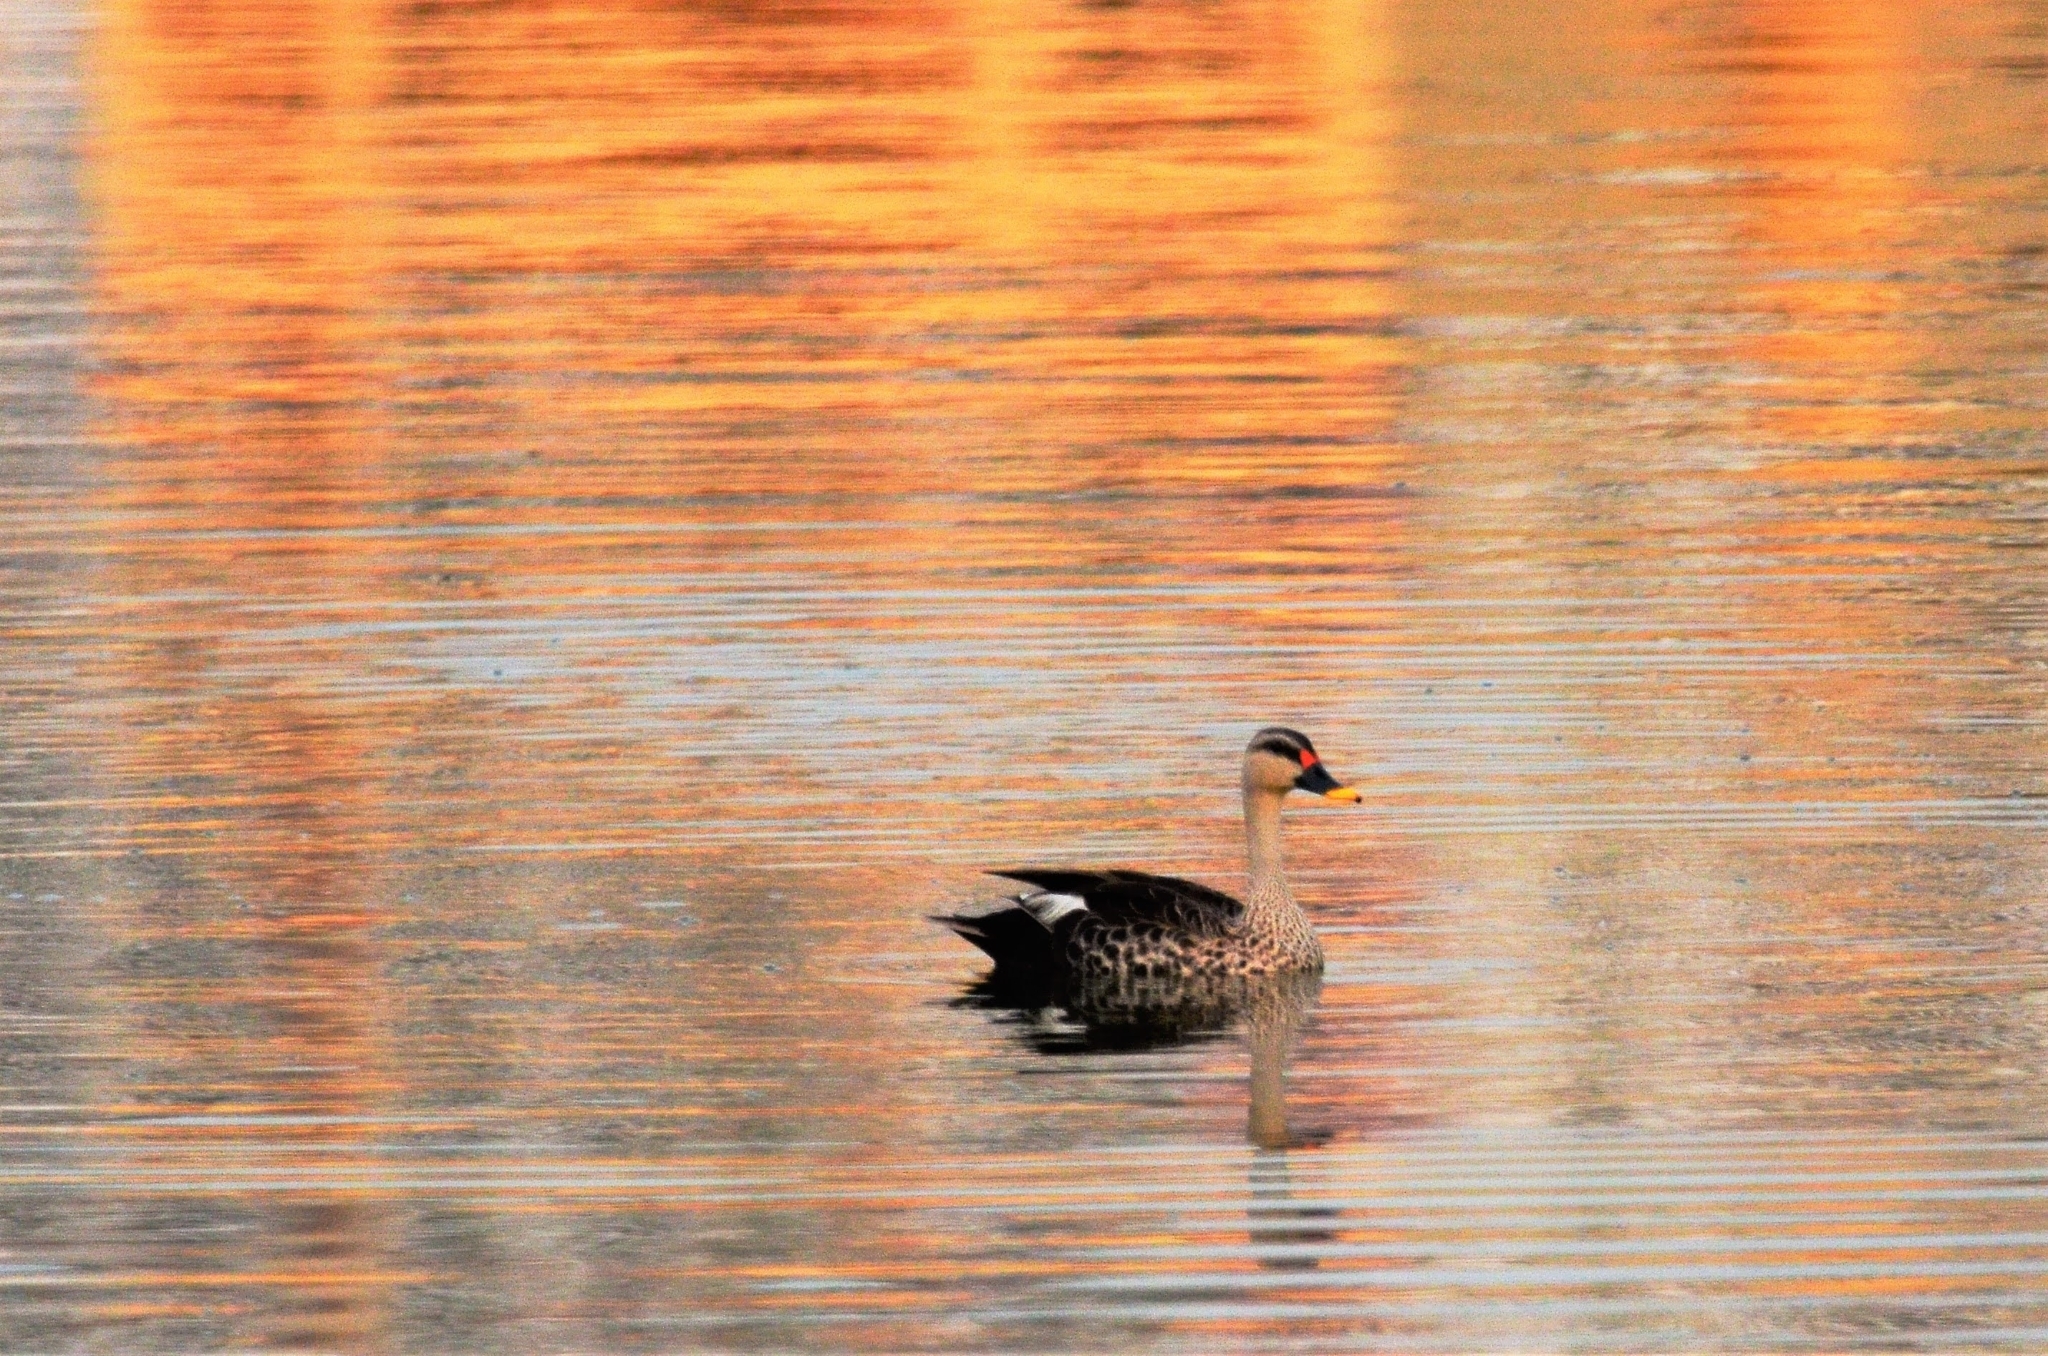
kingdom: Animalia
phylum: Chordata
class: Aves
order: Anseriformes
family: Anatidae
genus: Anas
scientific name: Anas poecilorhyncha
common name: Indian spot-billed duck
